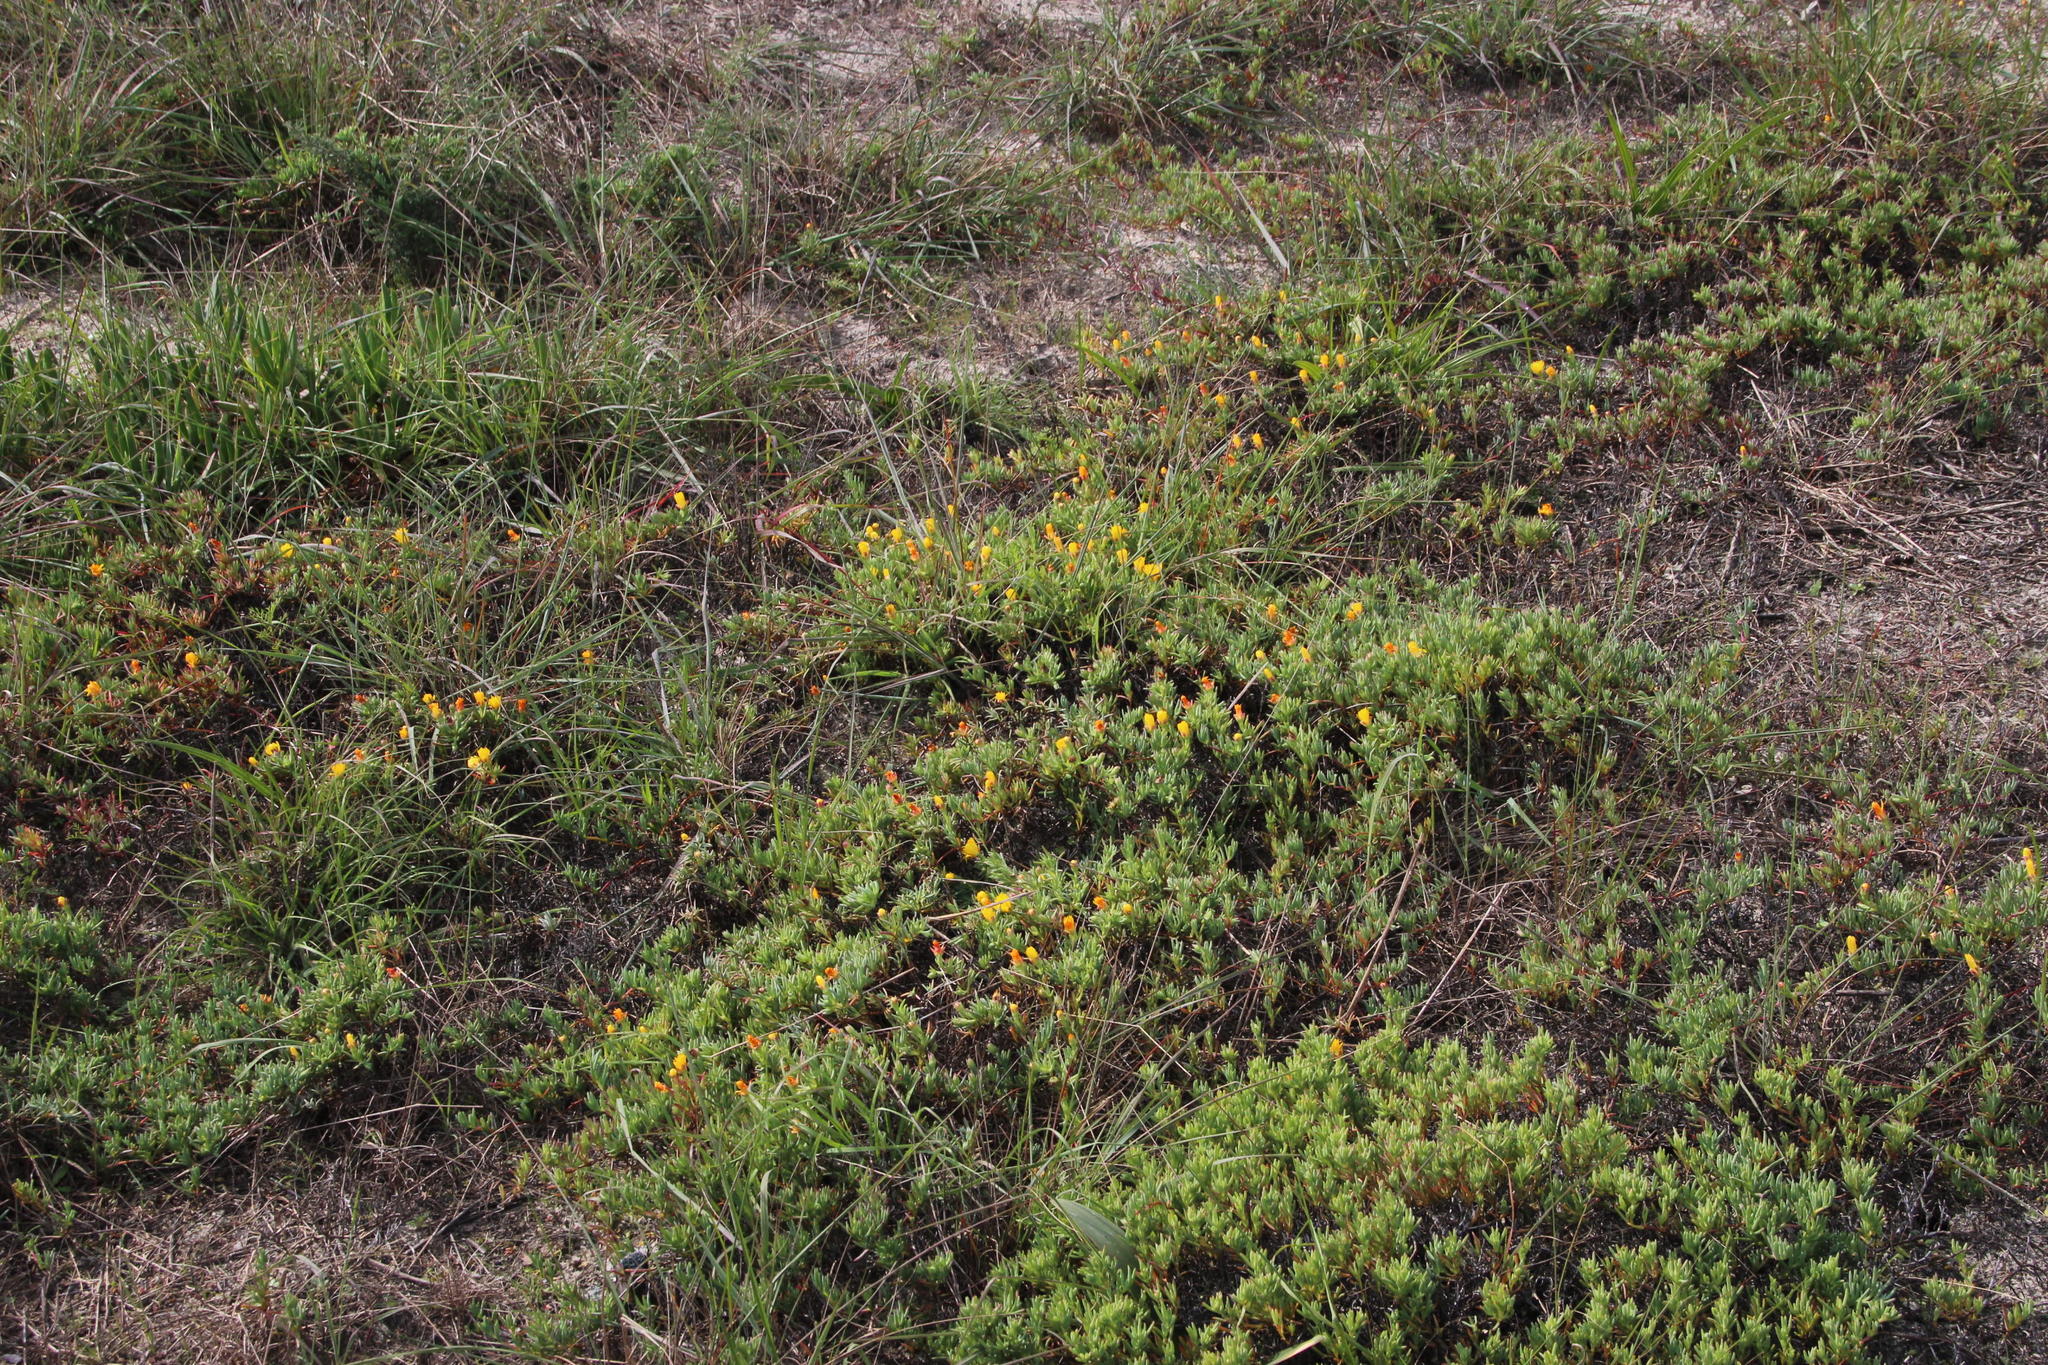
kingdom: Plantae
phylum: Tracheophyta
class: Magnoliopsida
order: Caryophyllales
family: Aizoaceae
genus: Lampranthus
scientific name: Lampranthus explanatus
